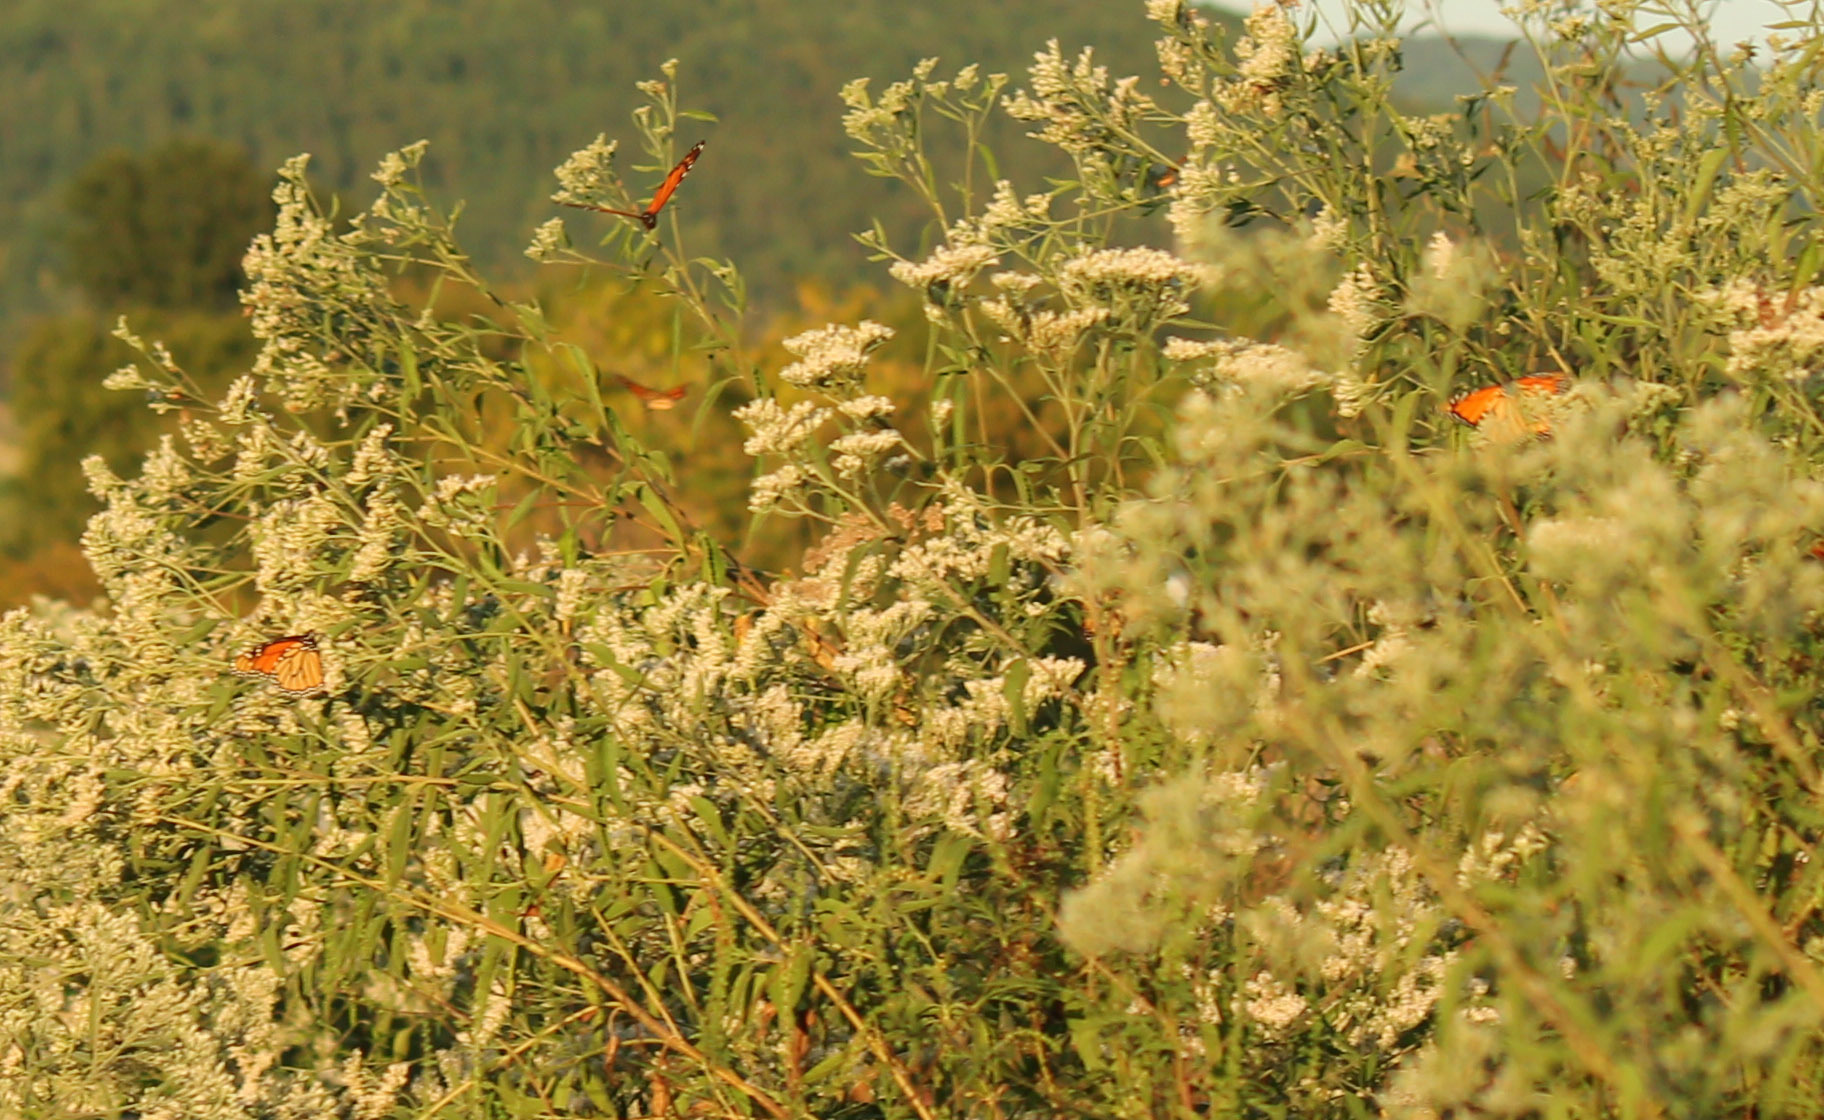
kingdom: Animalia
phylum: Arthropoda
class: Insecta
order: Lepidoptera
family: Nymphalidae
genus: Danaus
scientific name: Danaus plexippus
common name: Monarch
